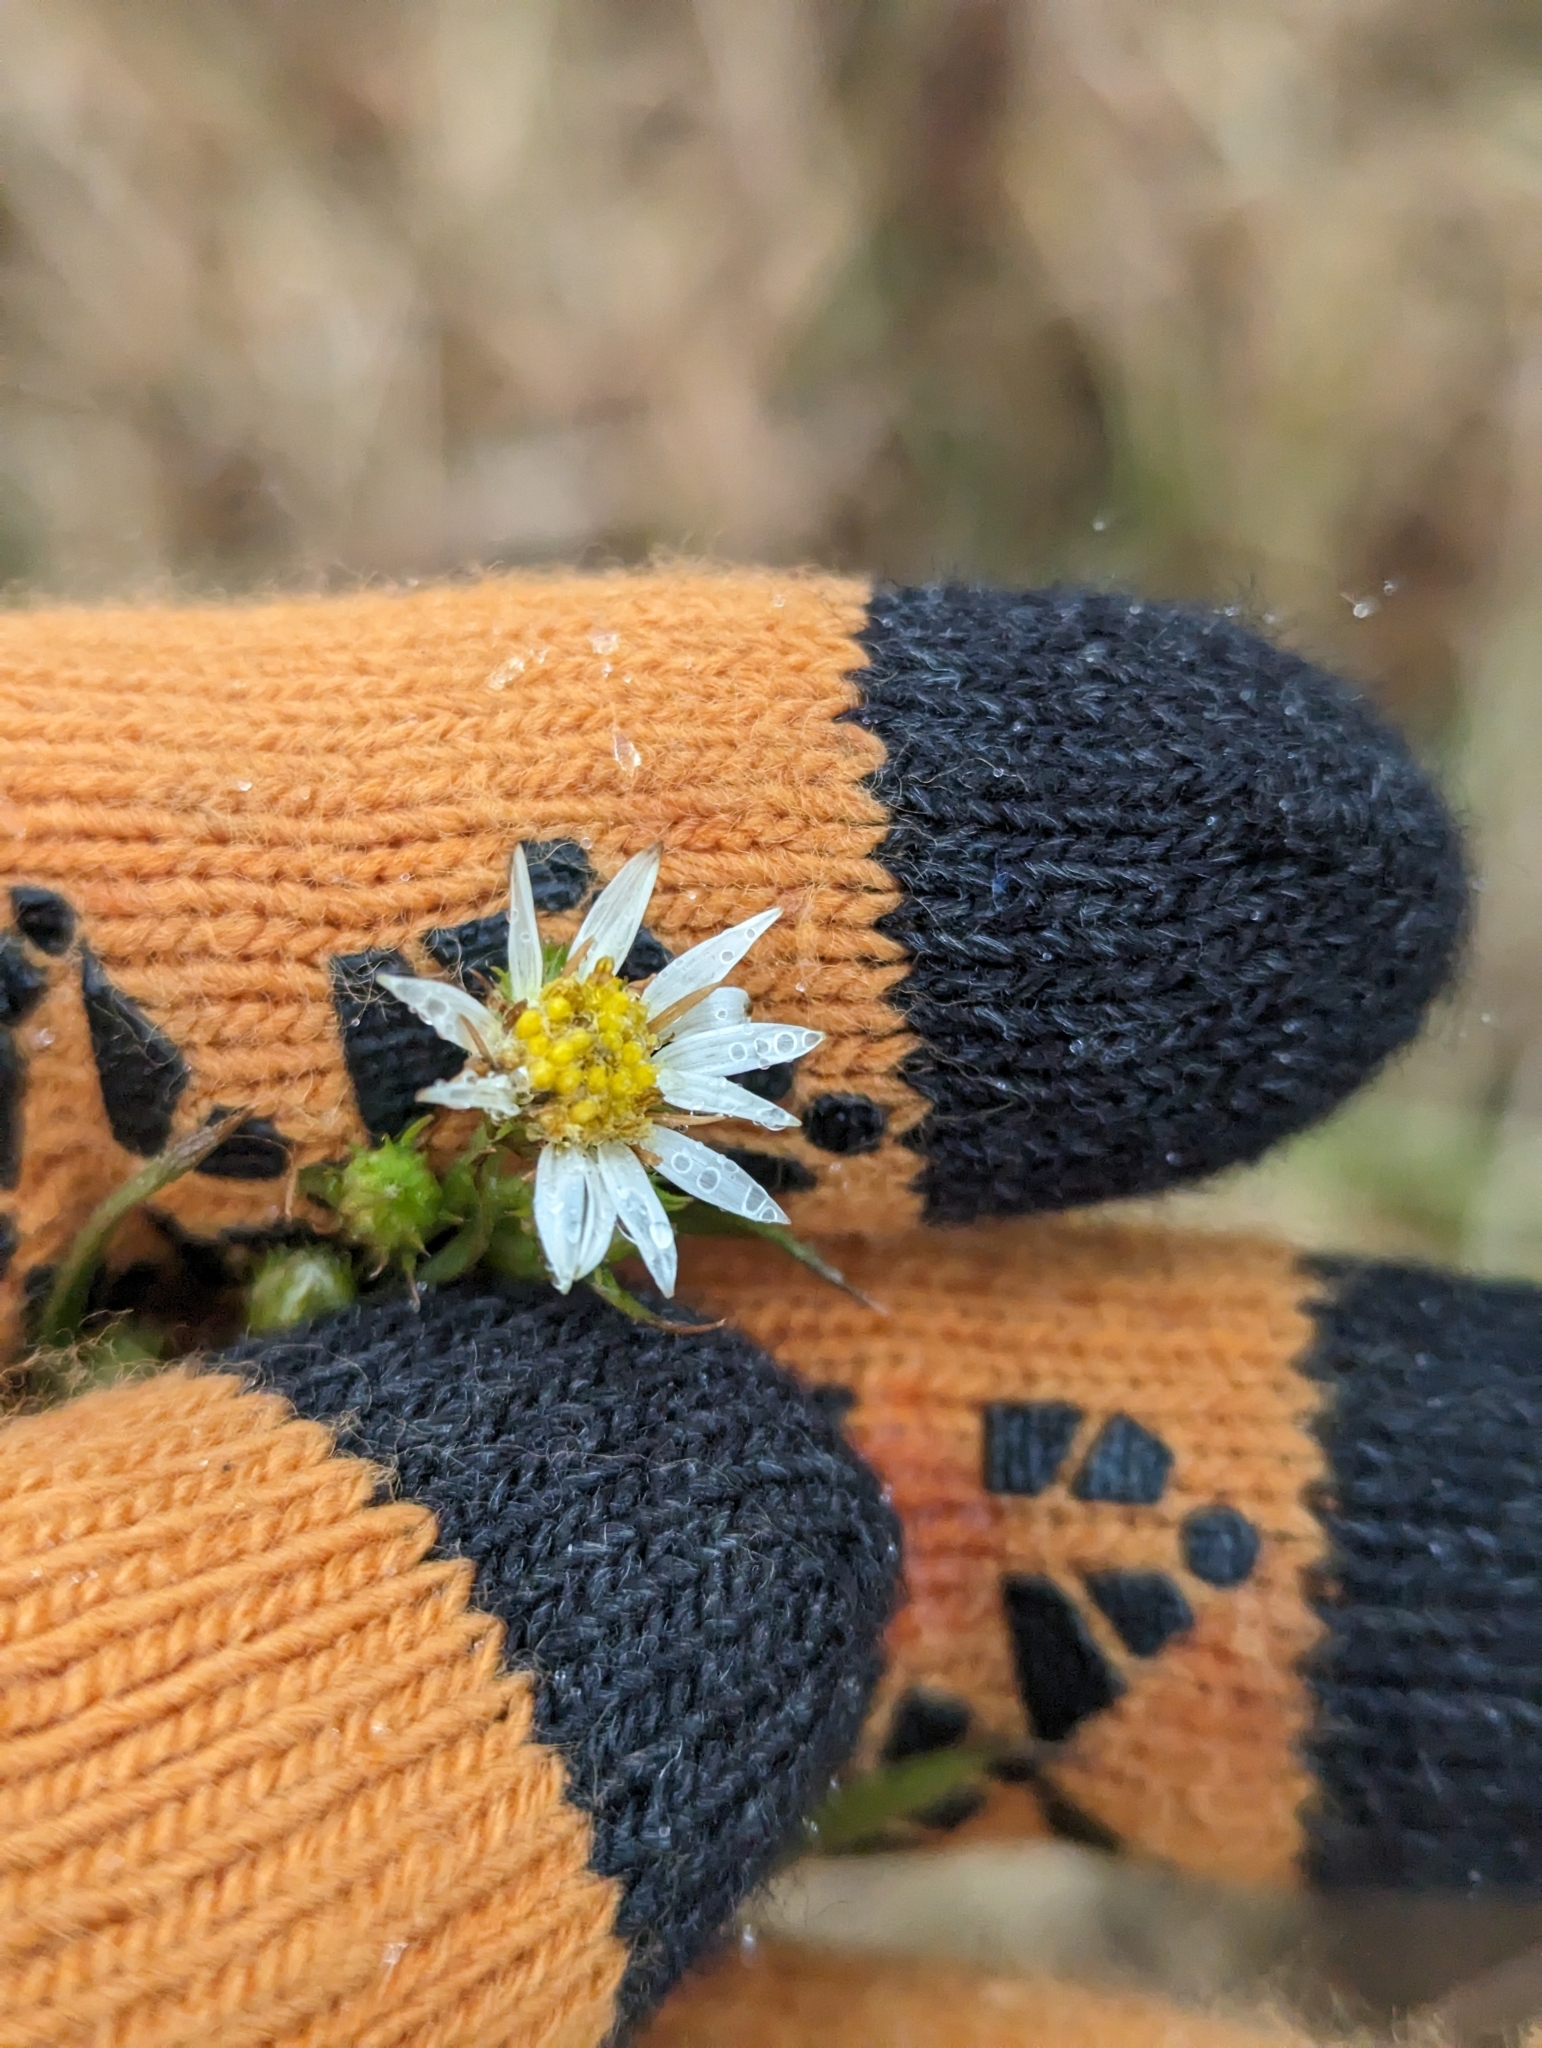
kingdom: Plantae
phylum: Tracheophyta
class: Magnoliopsida
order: Asterales
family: Asteraceae
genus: Symphyotrichum
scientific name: Symphyotrichum pilosum
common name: Awl aster
